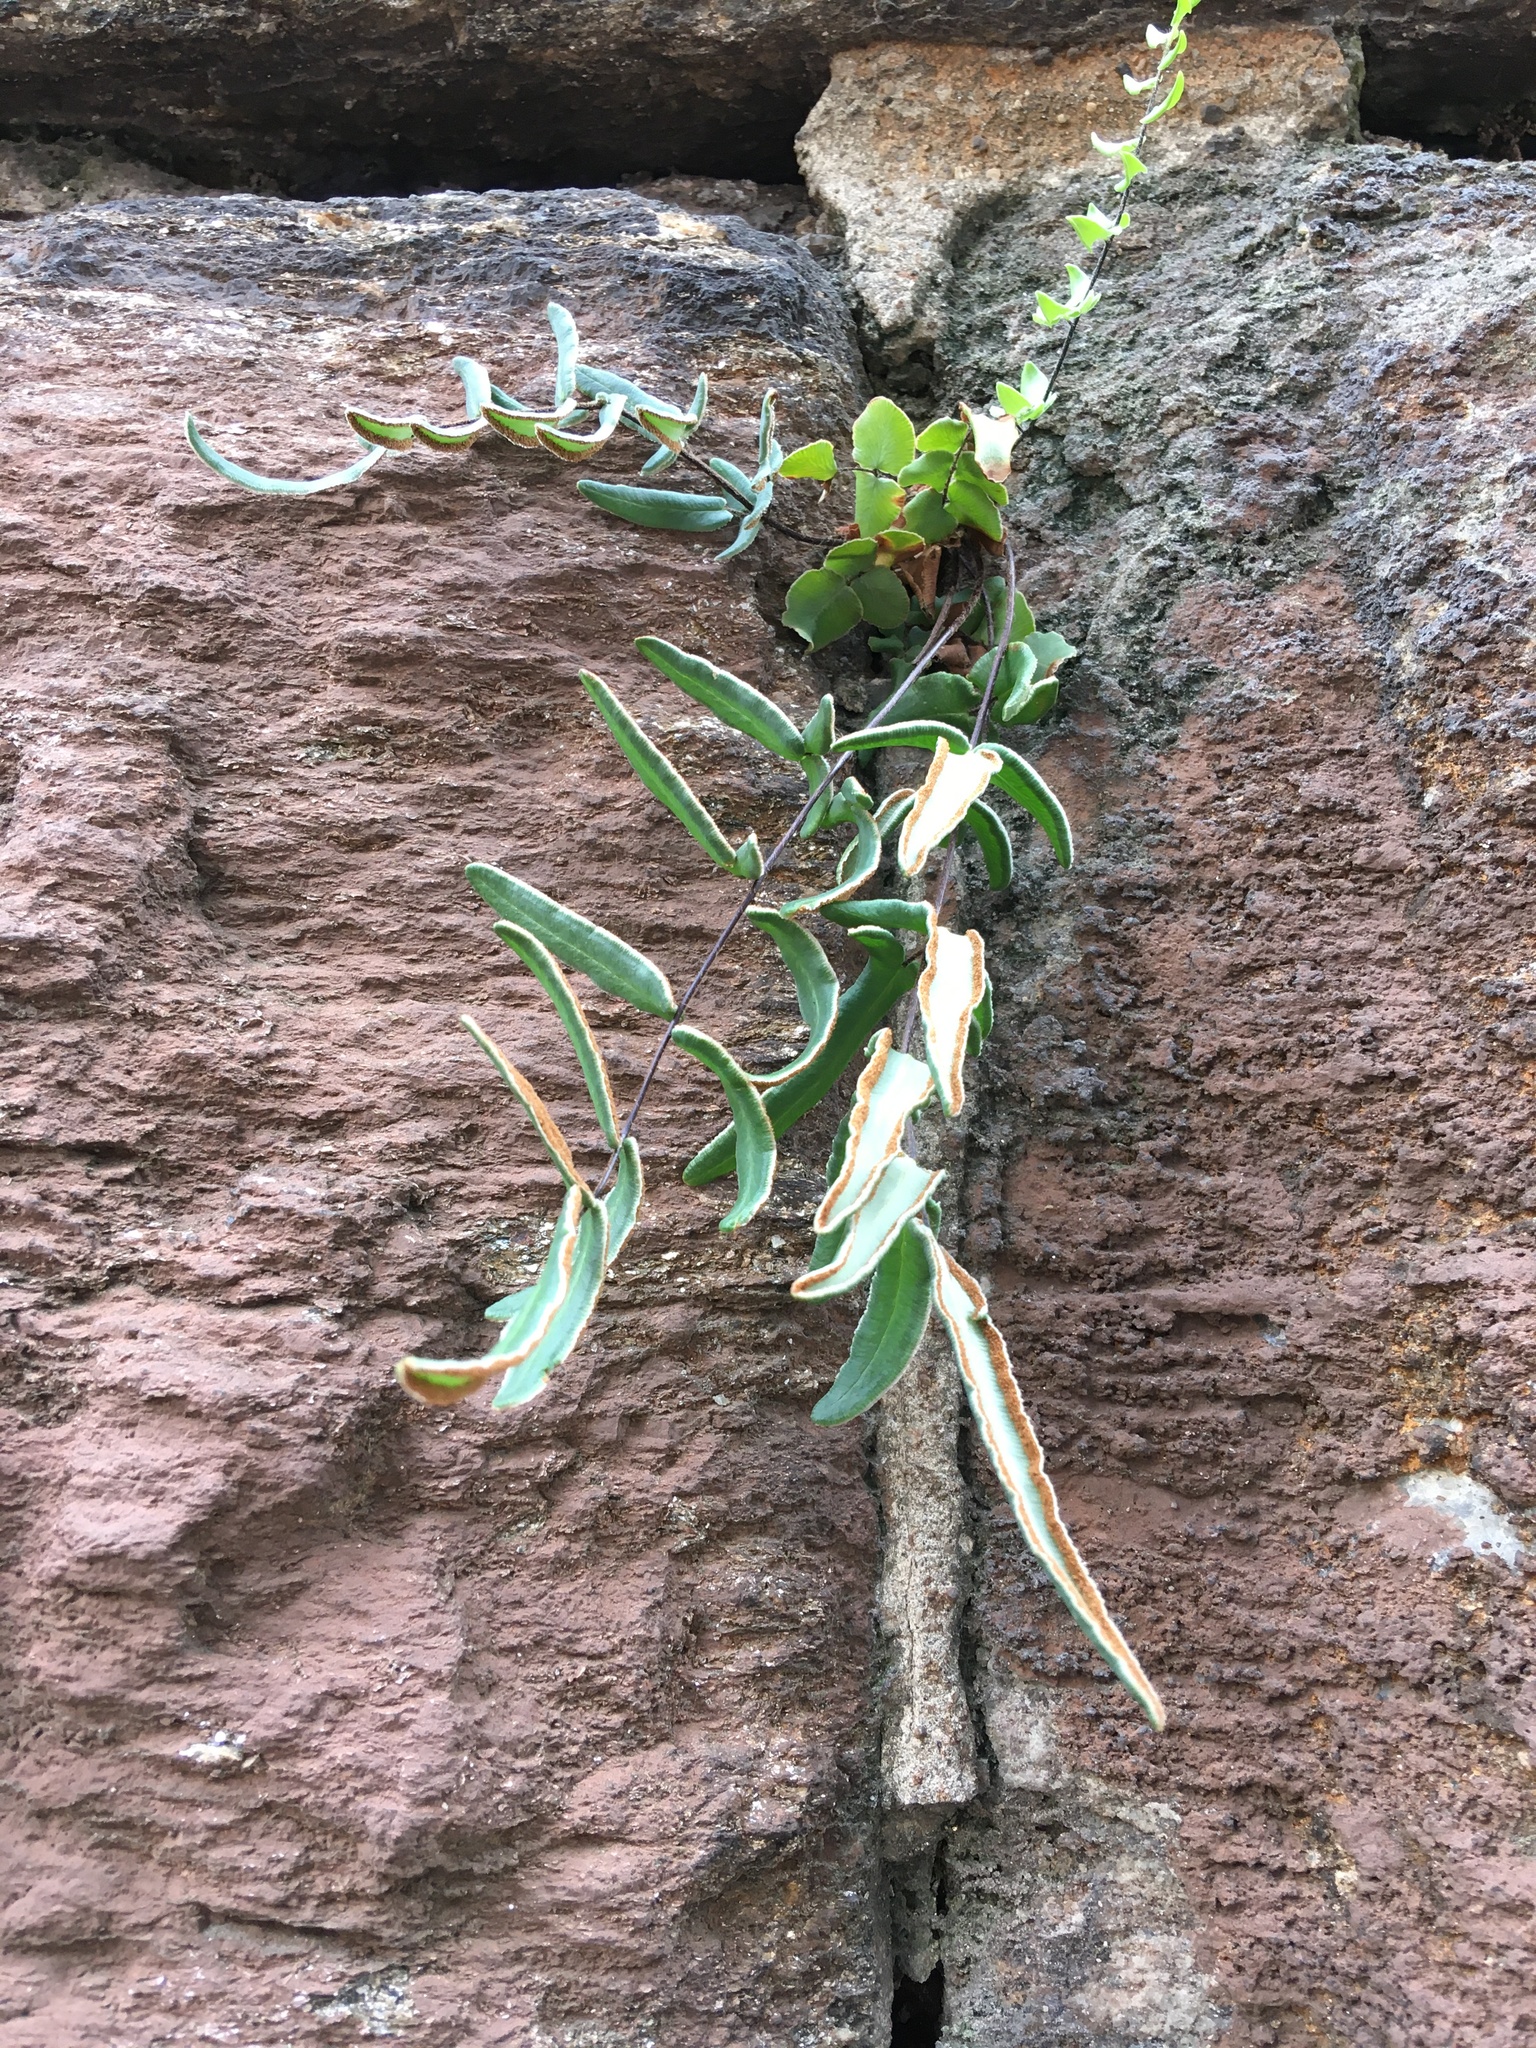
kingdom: Plantae
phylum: Tracheophyta
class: Polypodiopsida
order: Polypodiales
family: Pteridaceae
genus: Pellaea
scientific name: Pellaea atropurpurea
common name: Hairy cliffbrake
